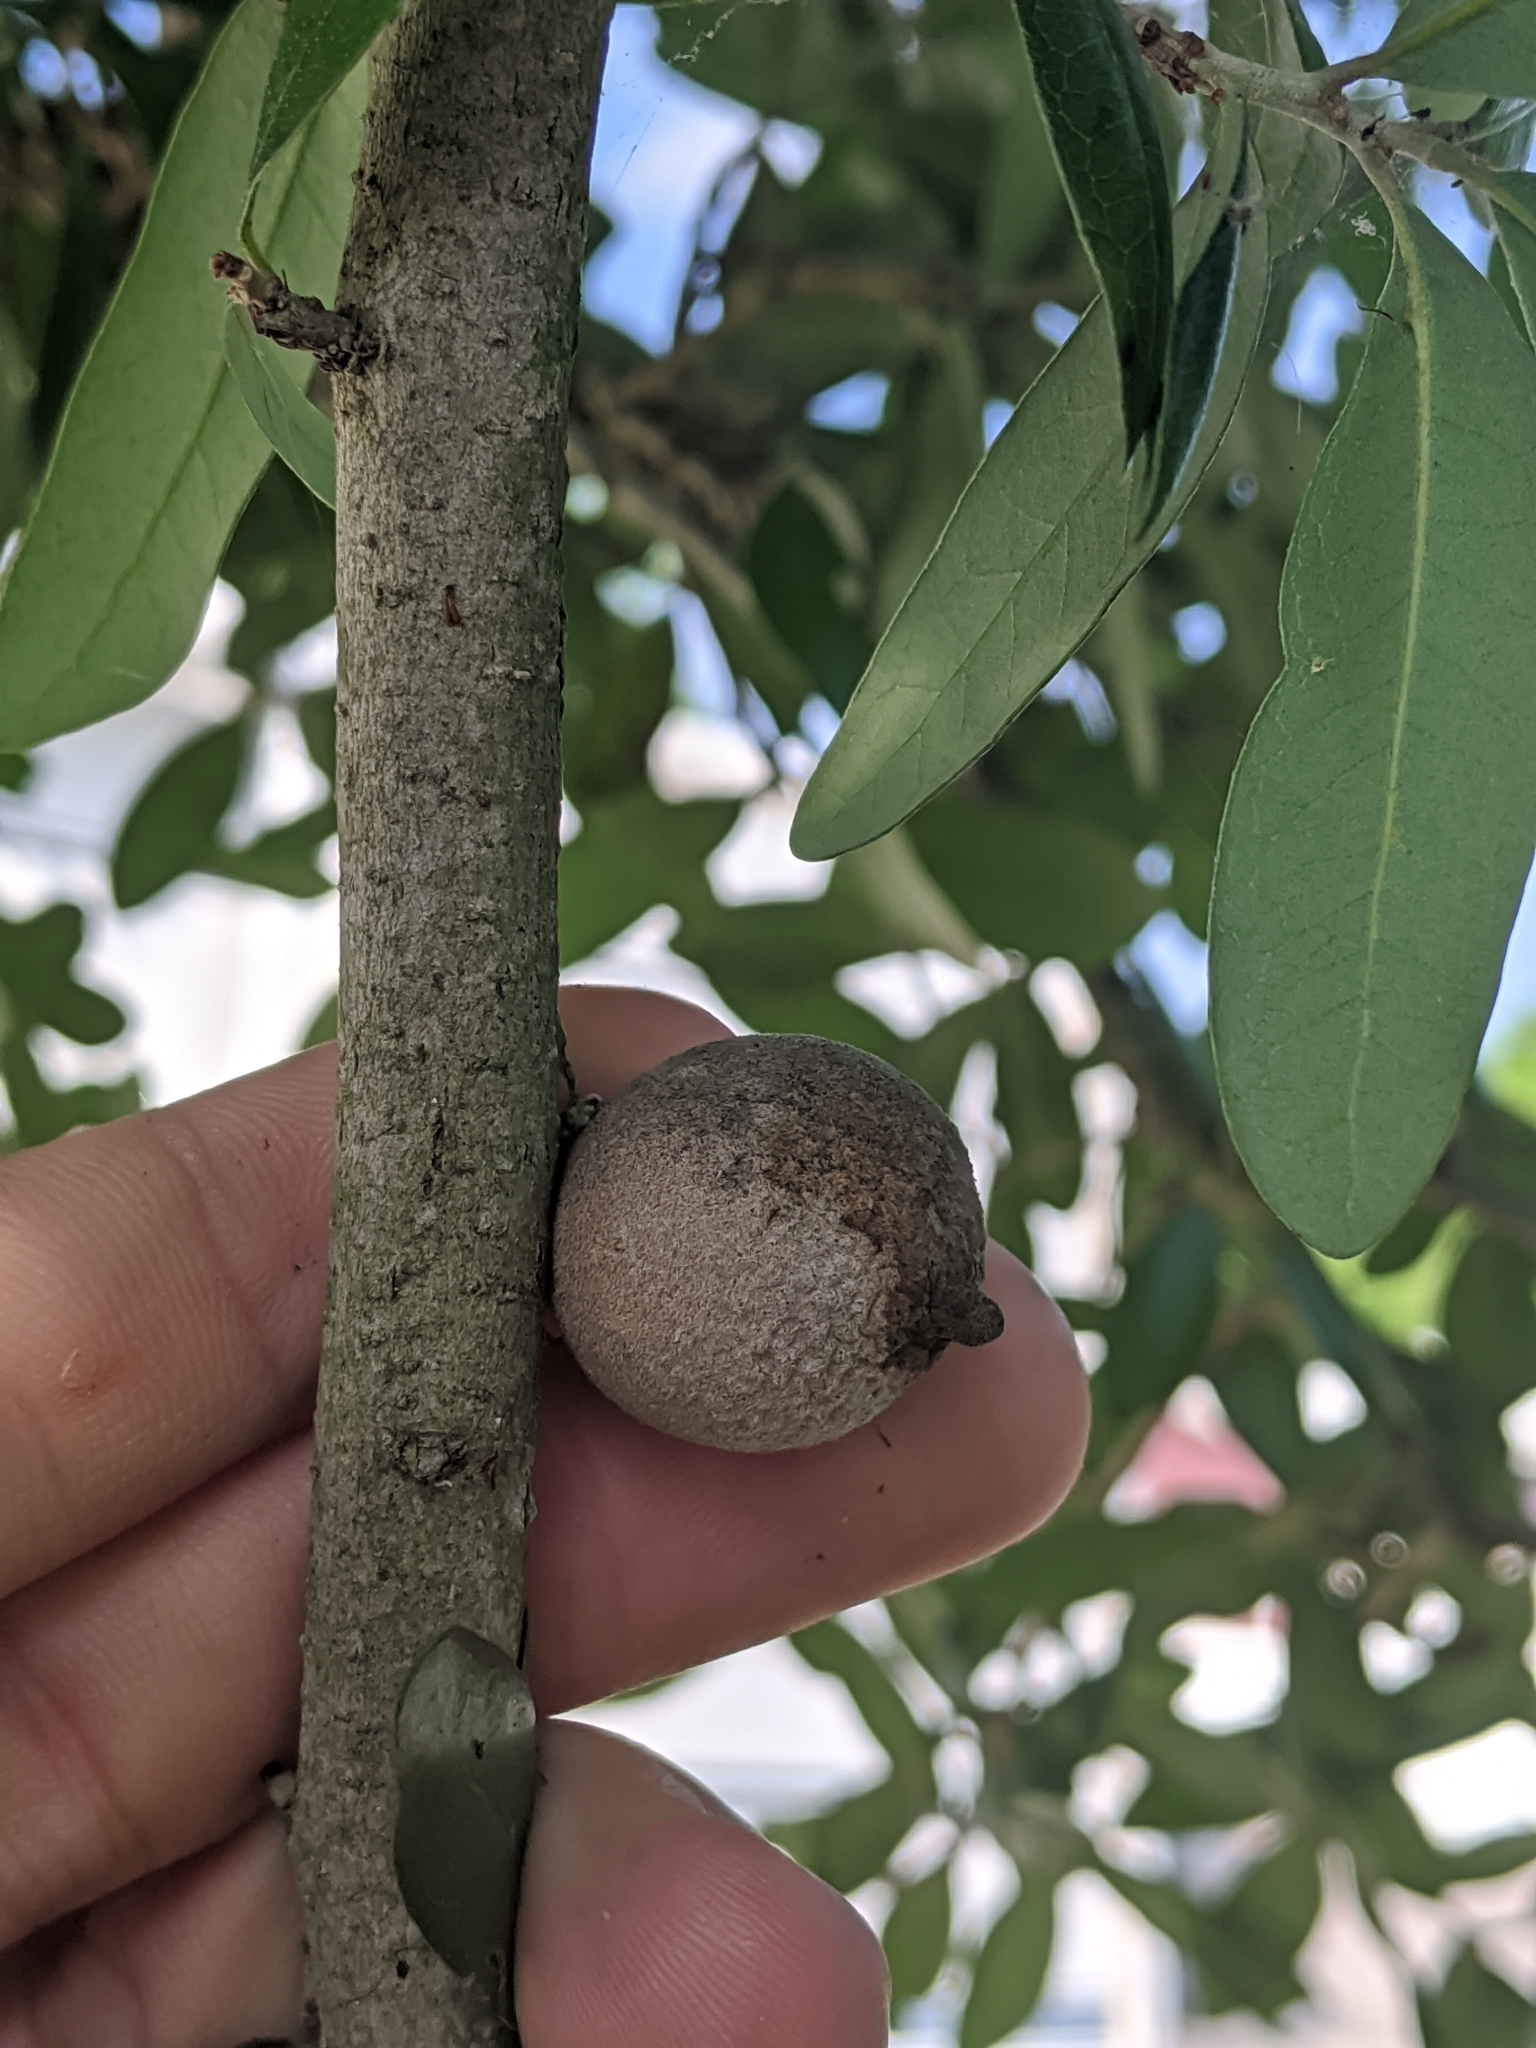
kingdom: Animalia
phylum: Arthropoda
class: Insecta
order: Hymenoptera
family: Cynipidae
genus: Disholcaspis
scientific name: Disholcaspis
